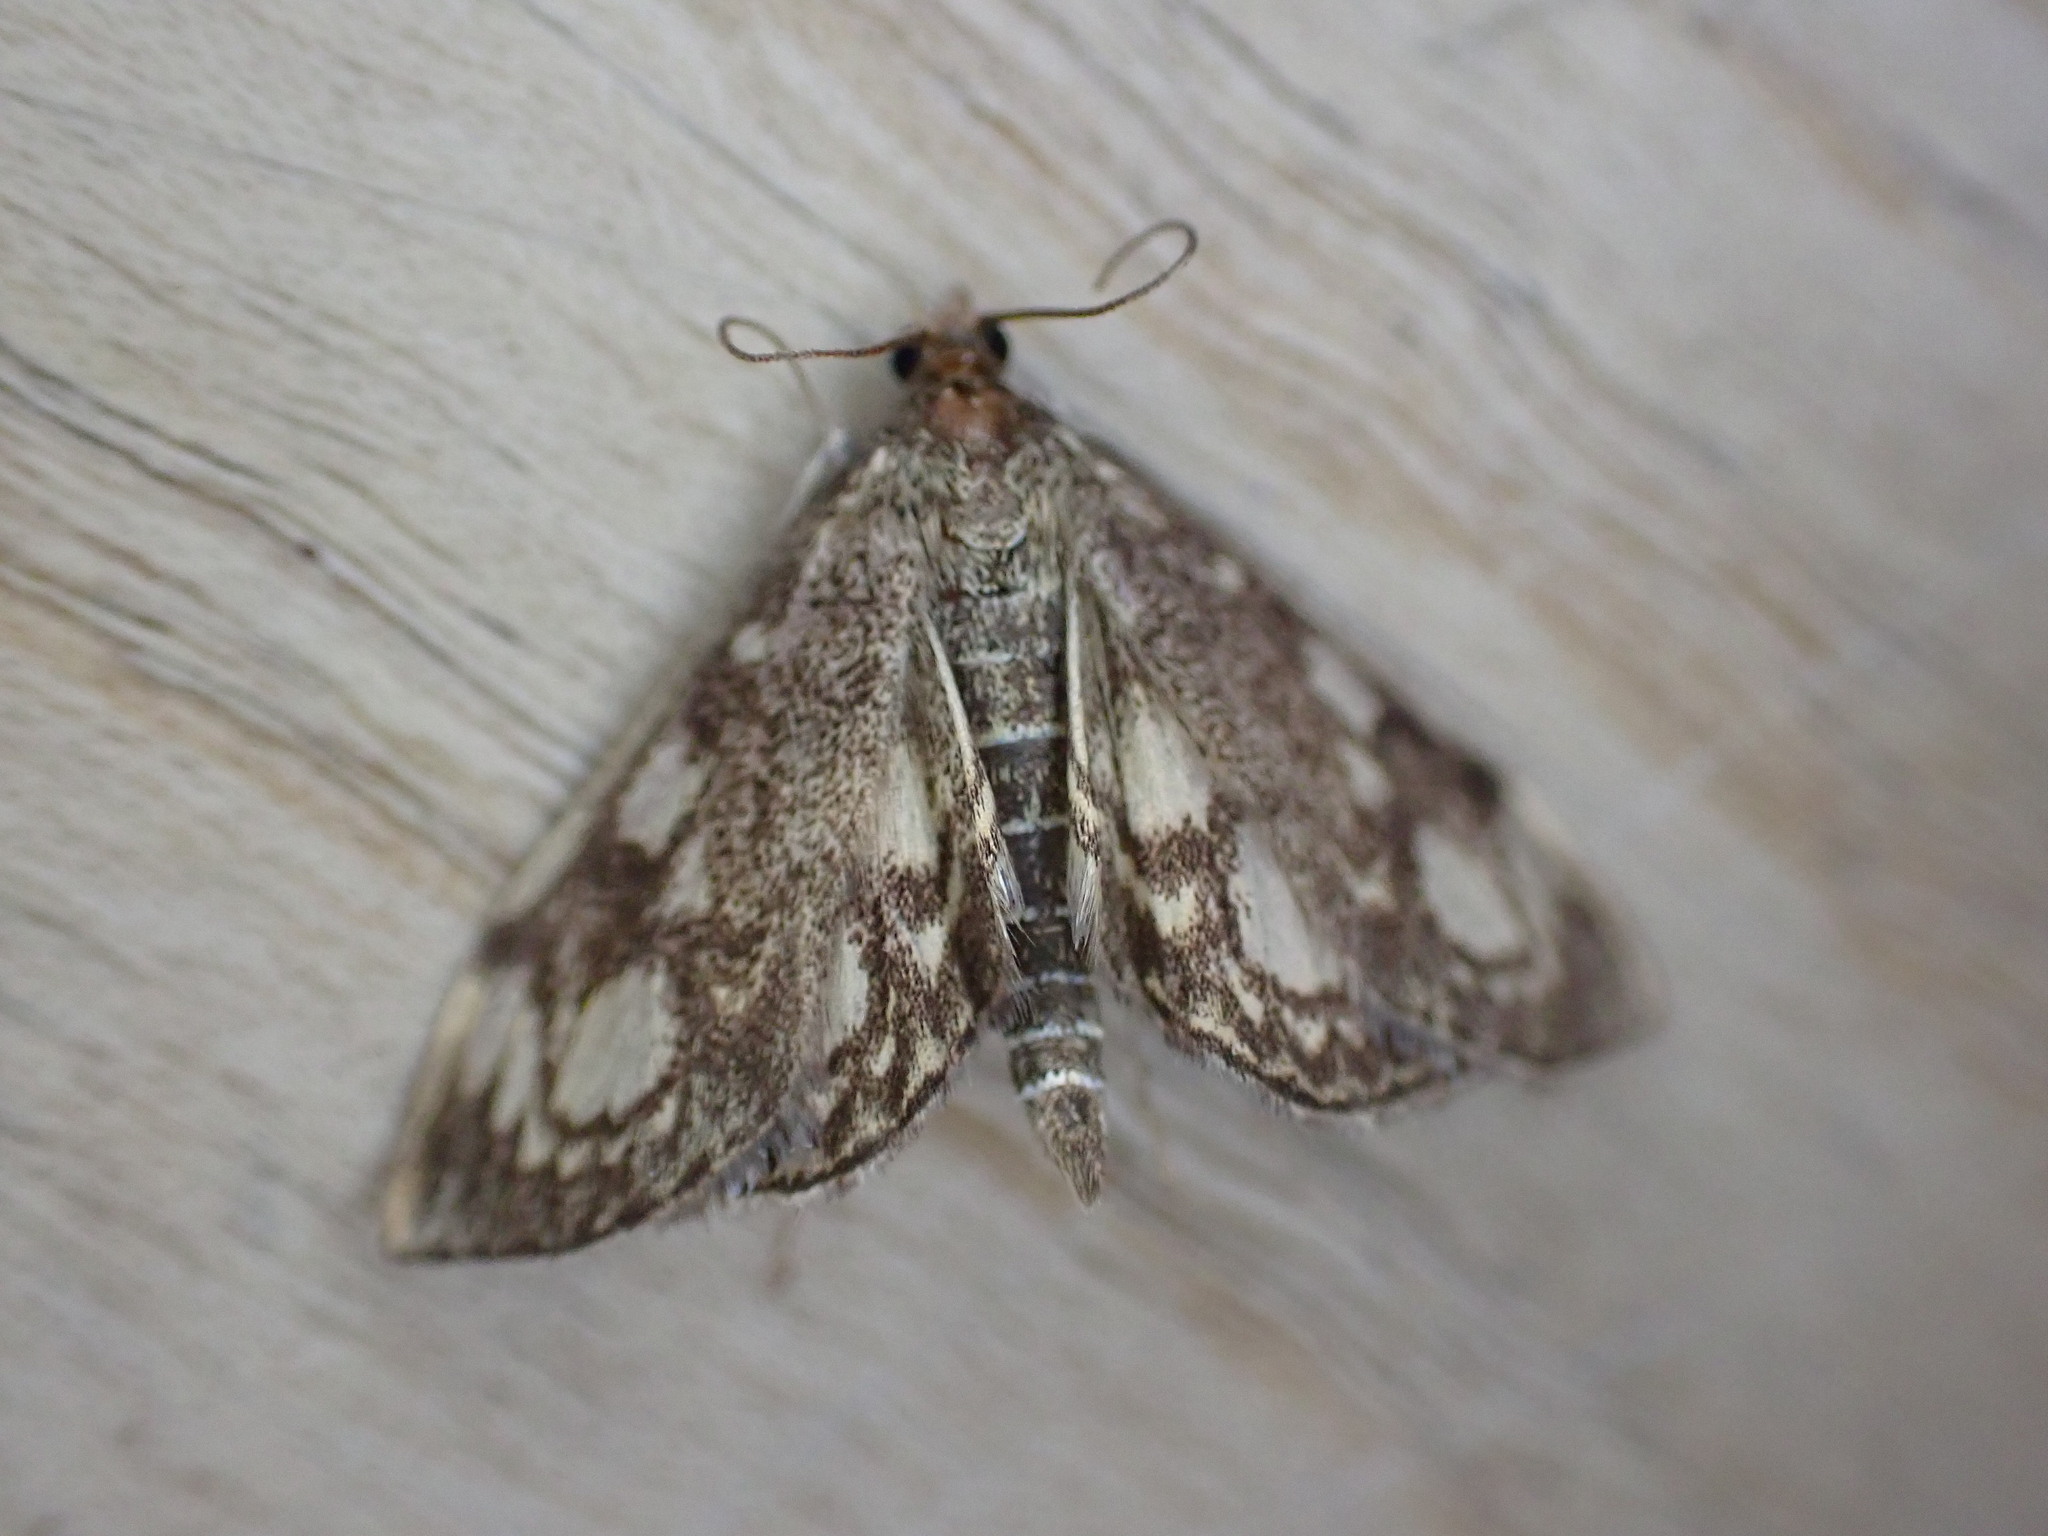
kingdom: Animalia
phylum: Arthropoda
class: Insecta
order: Lepidoptera
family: Crambidae
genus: Anania
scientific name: Anania coronata
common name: Elder pearl
